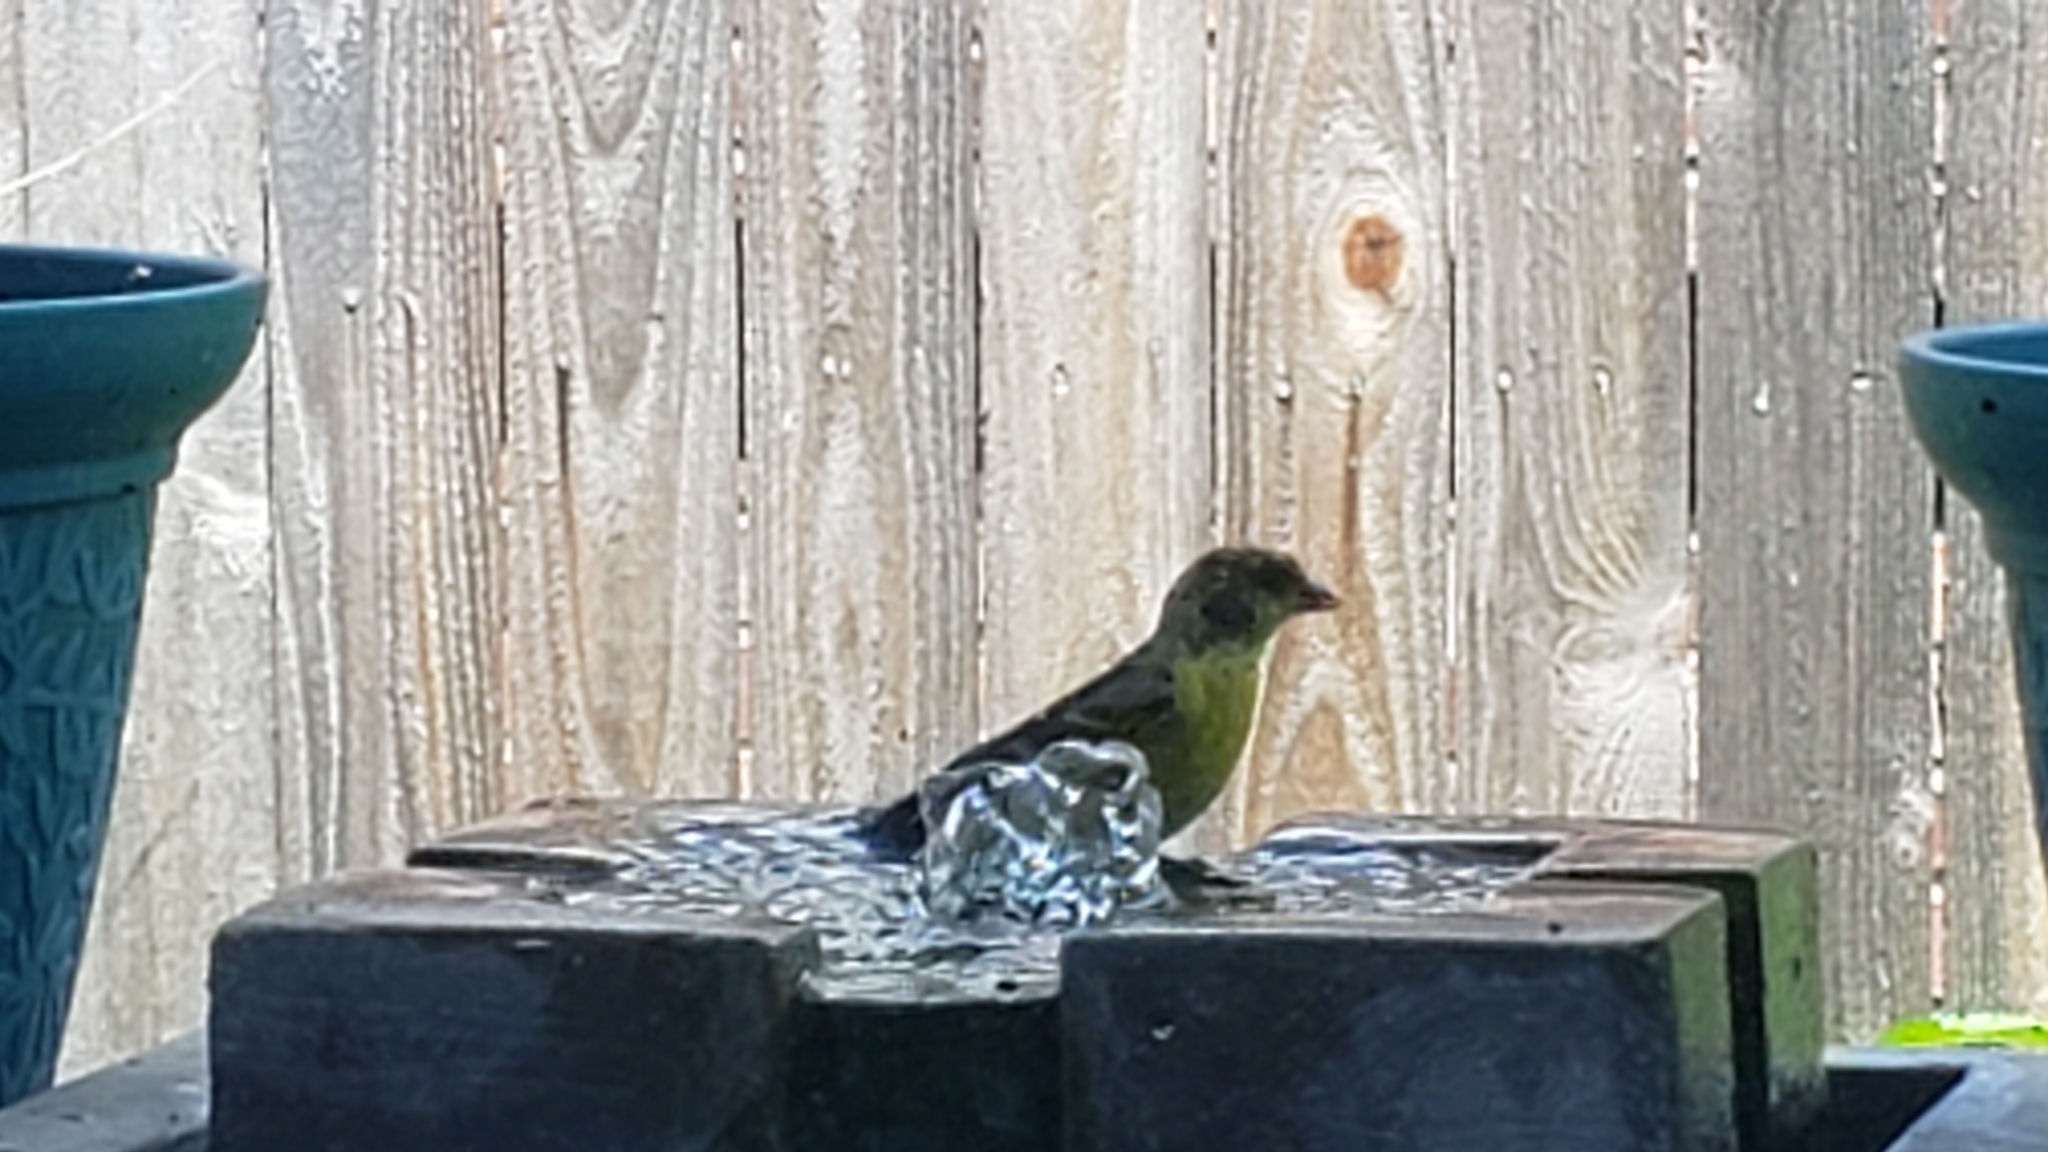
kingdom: Animalia
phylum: Chordata
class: Aves
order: Passeriformes
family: Fringillidae
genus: Spinus
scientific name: Spinus psaltria
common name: Lesser goldfinch
